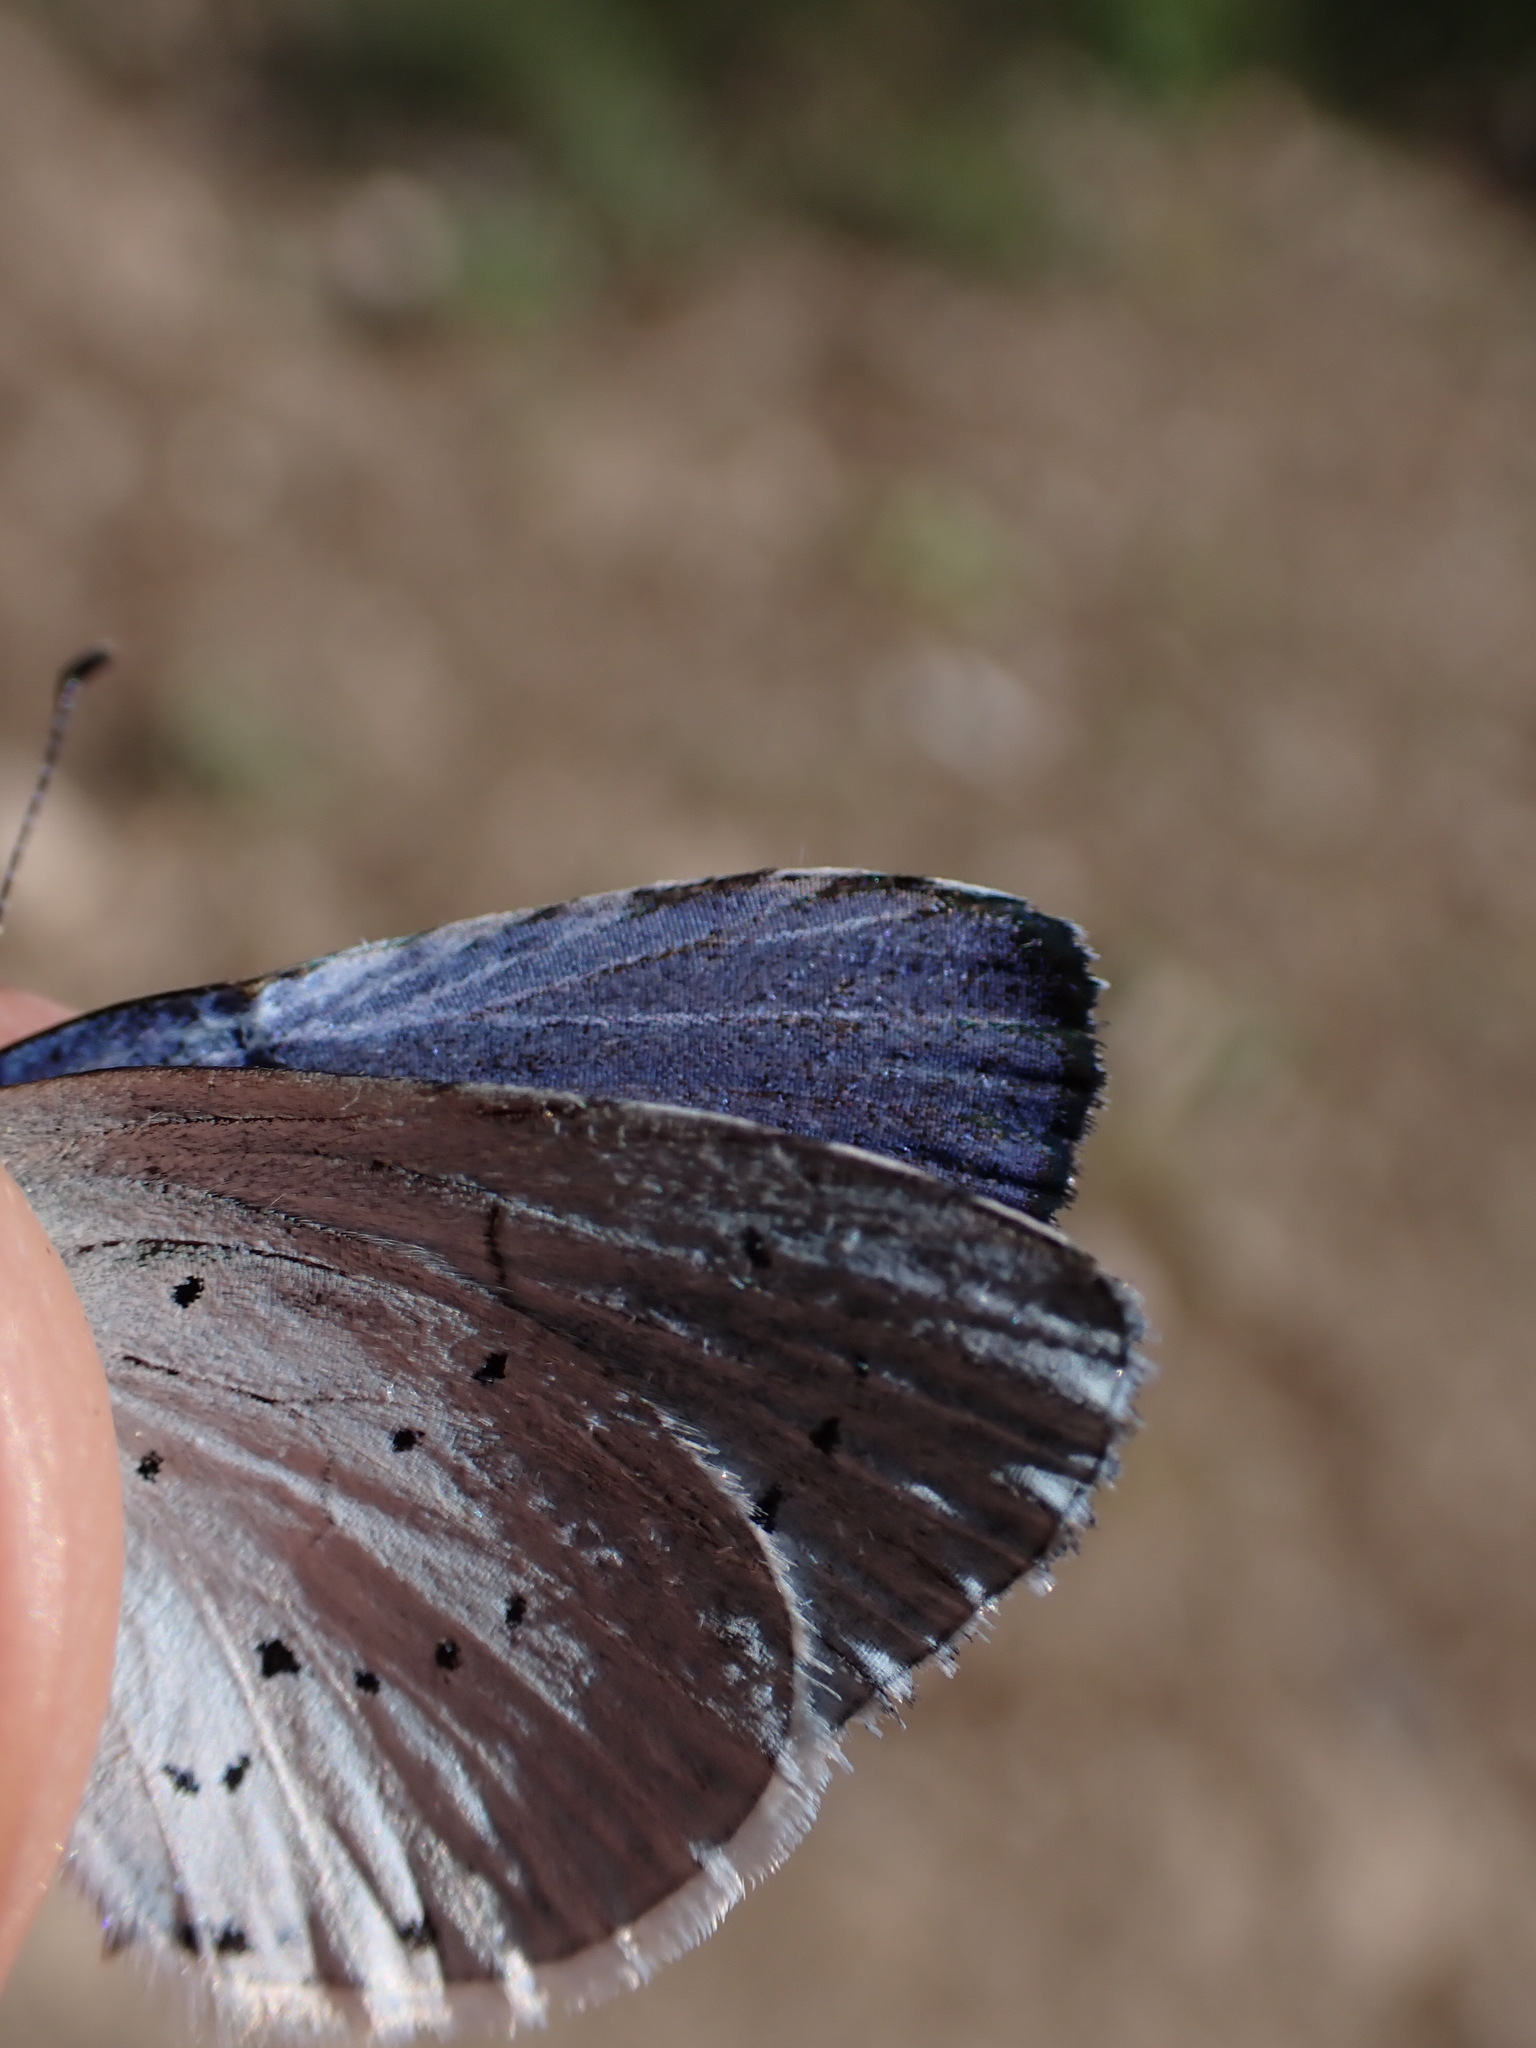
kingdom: Animalia
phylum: Arthropoda
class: Insecta
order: Lepidoptera
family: Lycaenidae
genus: Celastrina
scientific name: Celastrina argiolus
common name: Holly blue
